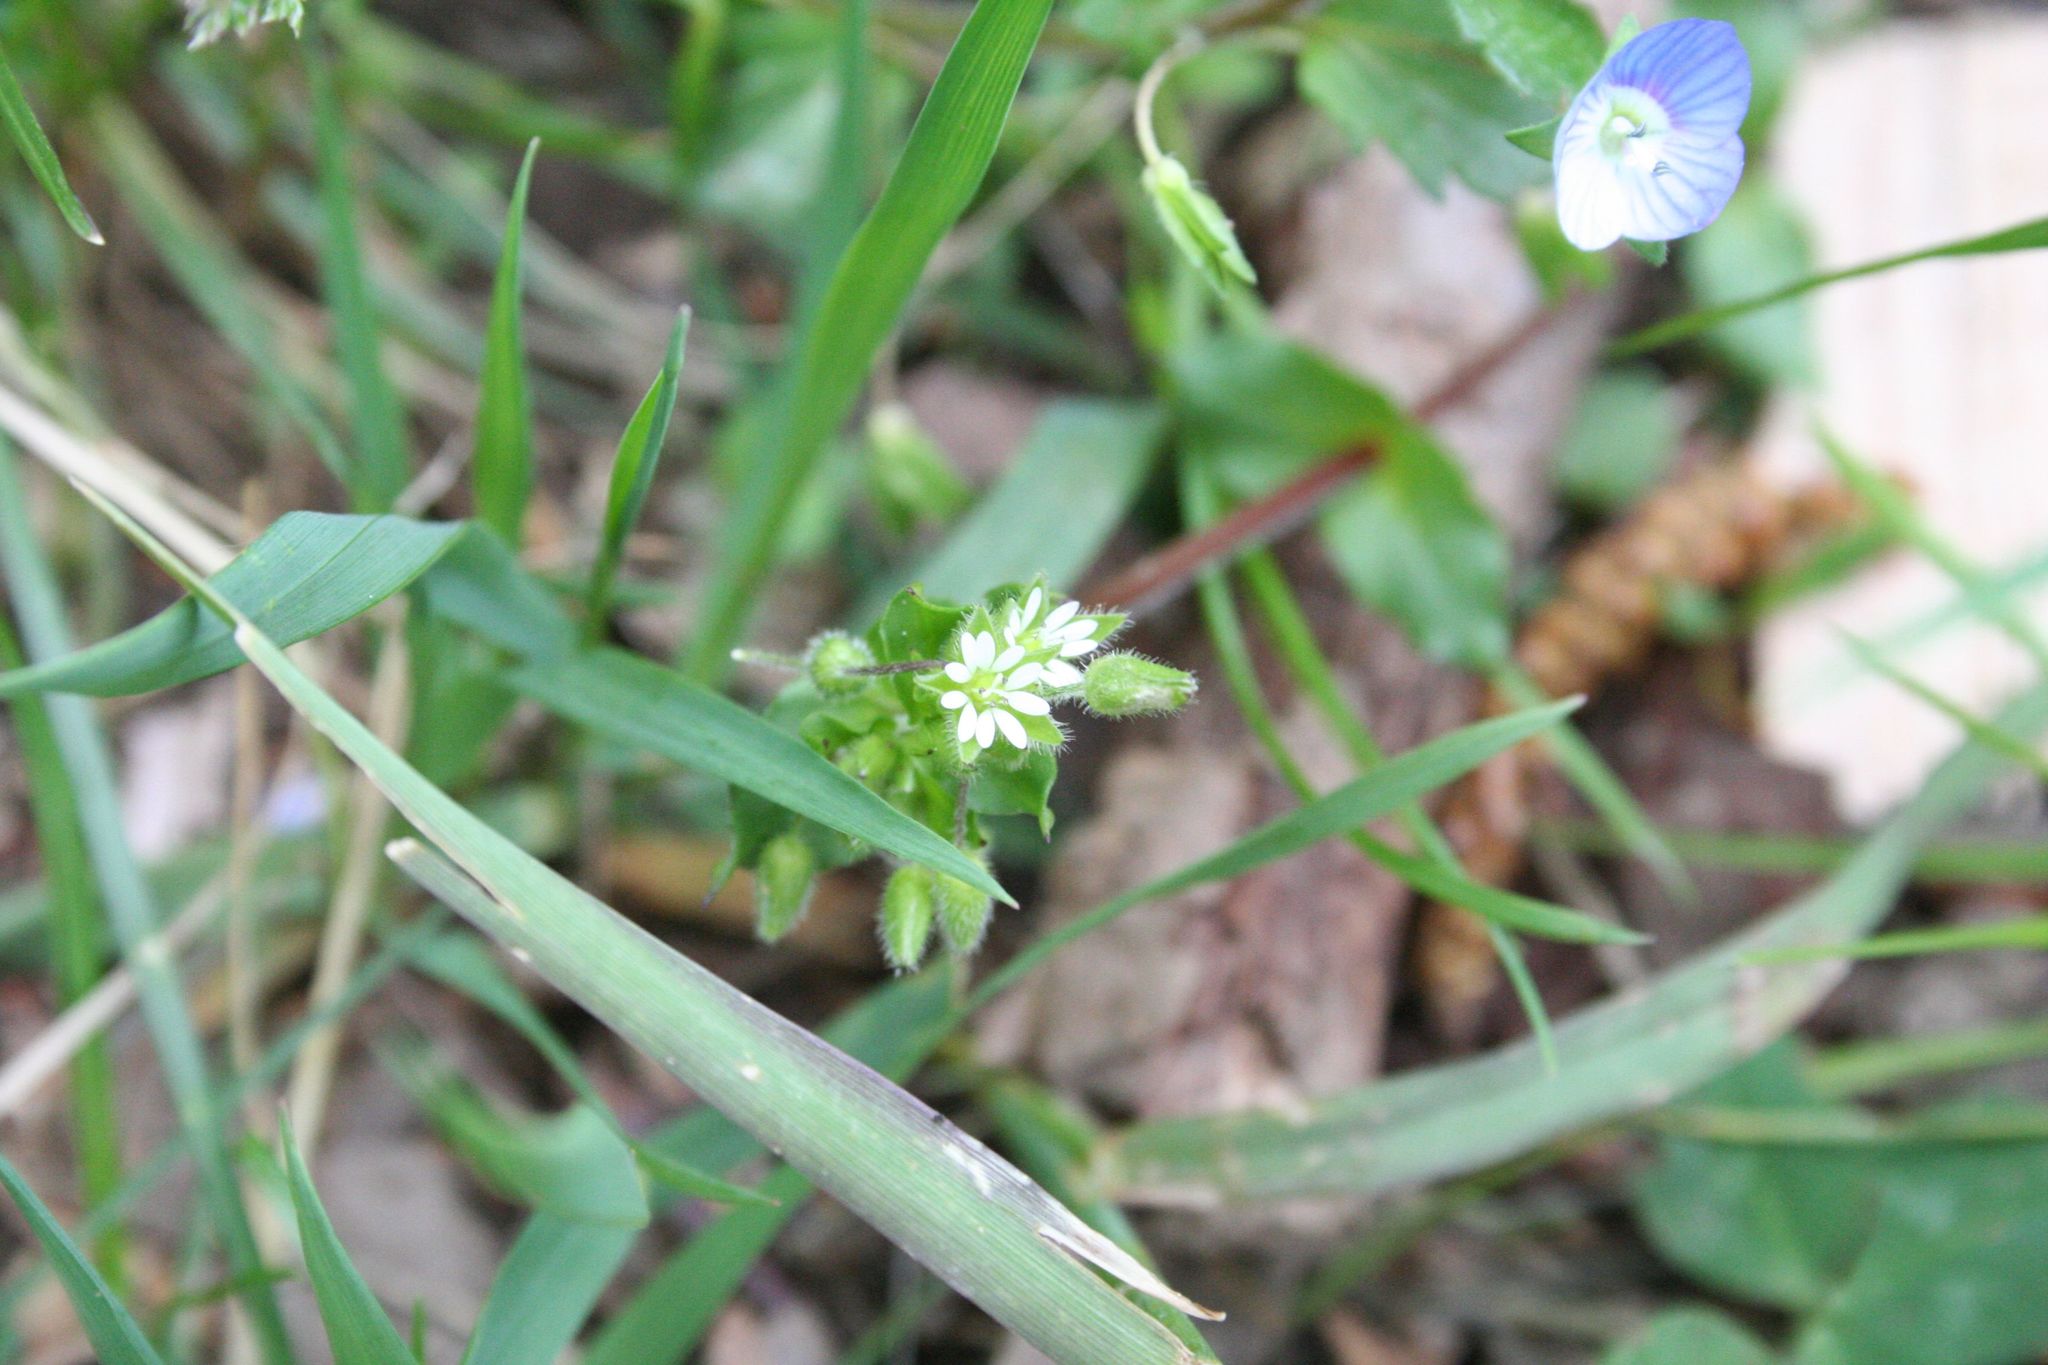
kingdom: Plantae
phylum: Tracheophyta
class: Magnoliopsida
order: Caryophyllales
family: Caryophyllaceae
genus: Stellaria
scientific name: Stellaria
